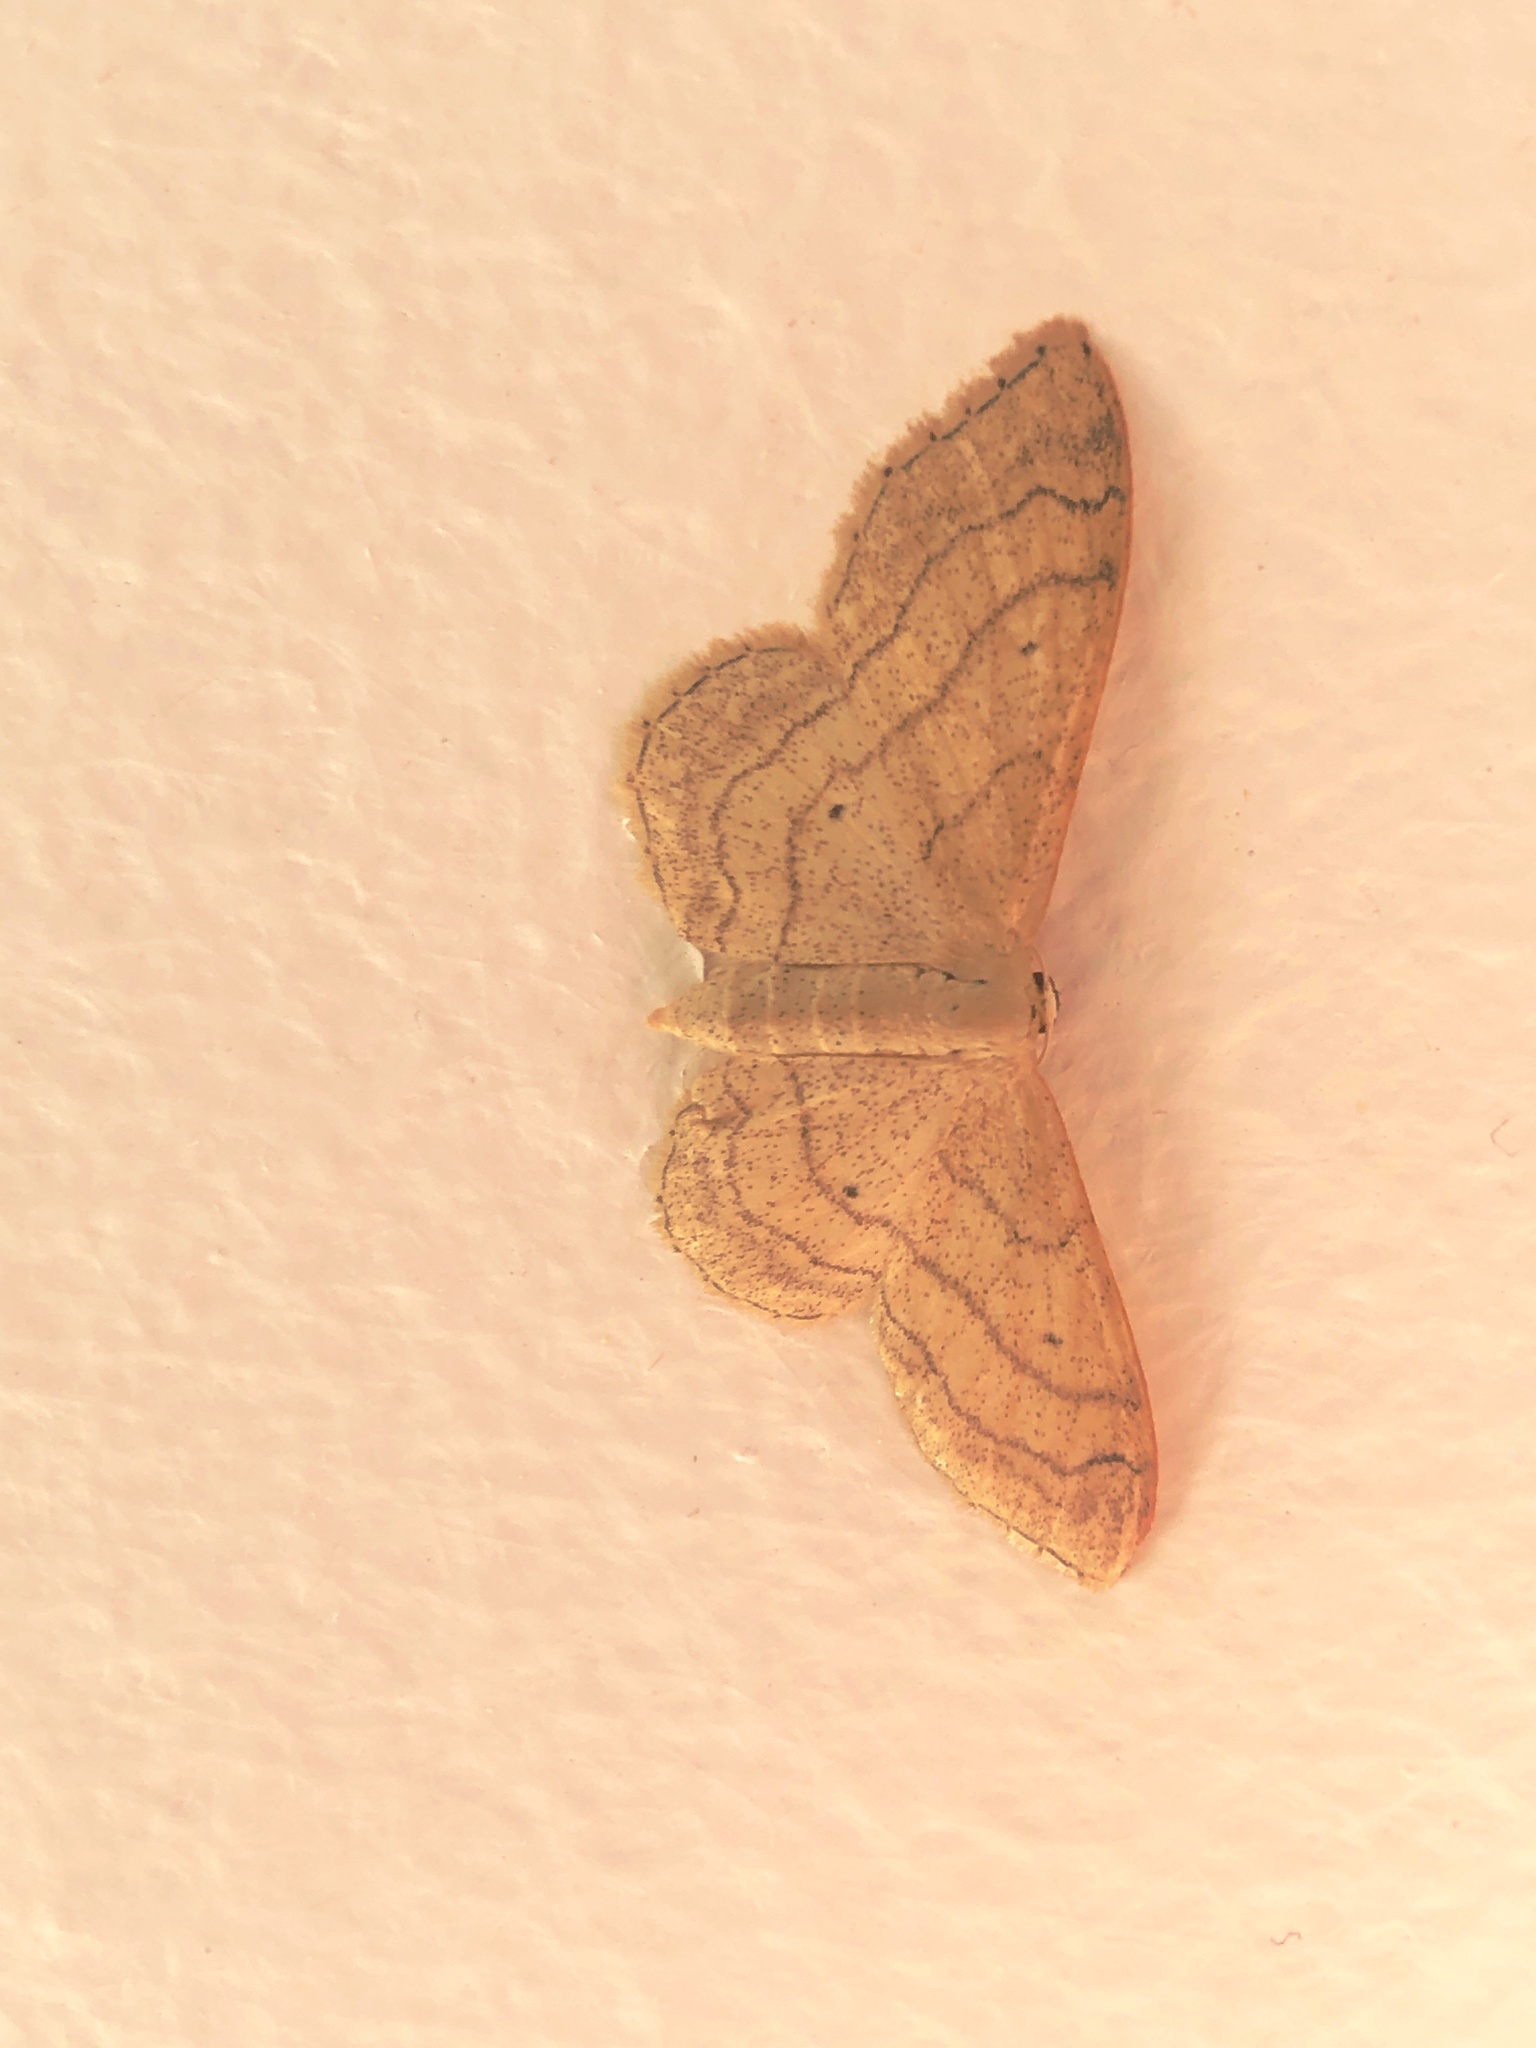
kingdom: Animalia
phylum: Arthropoda
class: Insecta
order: Lepidoptera
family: Geometridae
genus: Idaea
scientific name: Idaea aversata
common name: Riband wave
